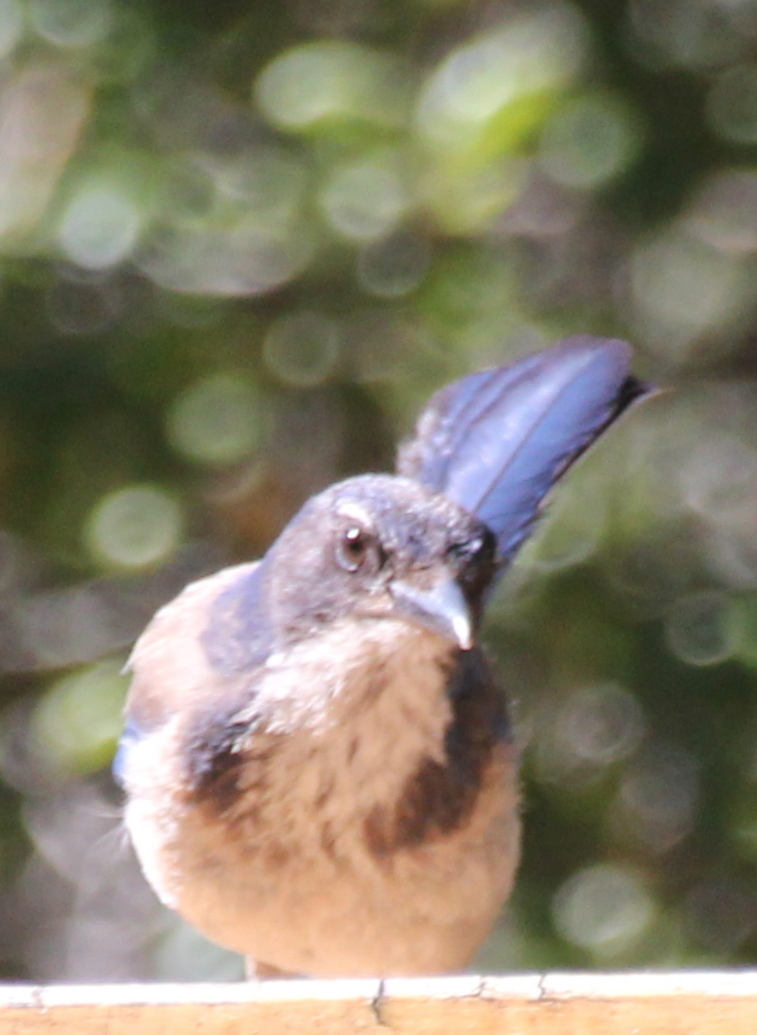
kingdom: Animalia
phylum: Chordata
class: Aves
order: Passeriformes
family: Corvidae
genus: Aphelocoma
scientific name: Aphelocoma californica
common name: California scrub-jay
